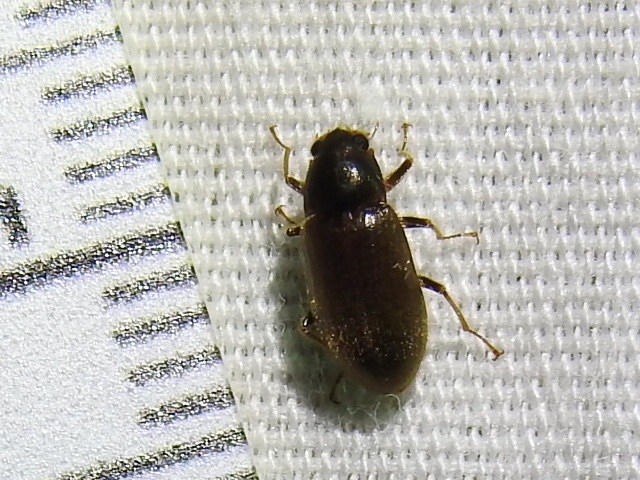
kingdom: Animalia
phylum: Arthropoda
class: Insecta
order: Coleoptera
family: Dryopidae
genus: Pelonomus
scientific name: Pelonomus obscurus
